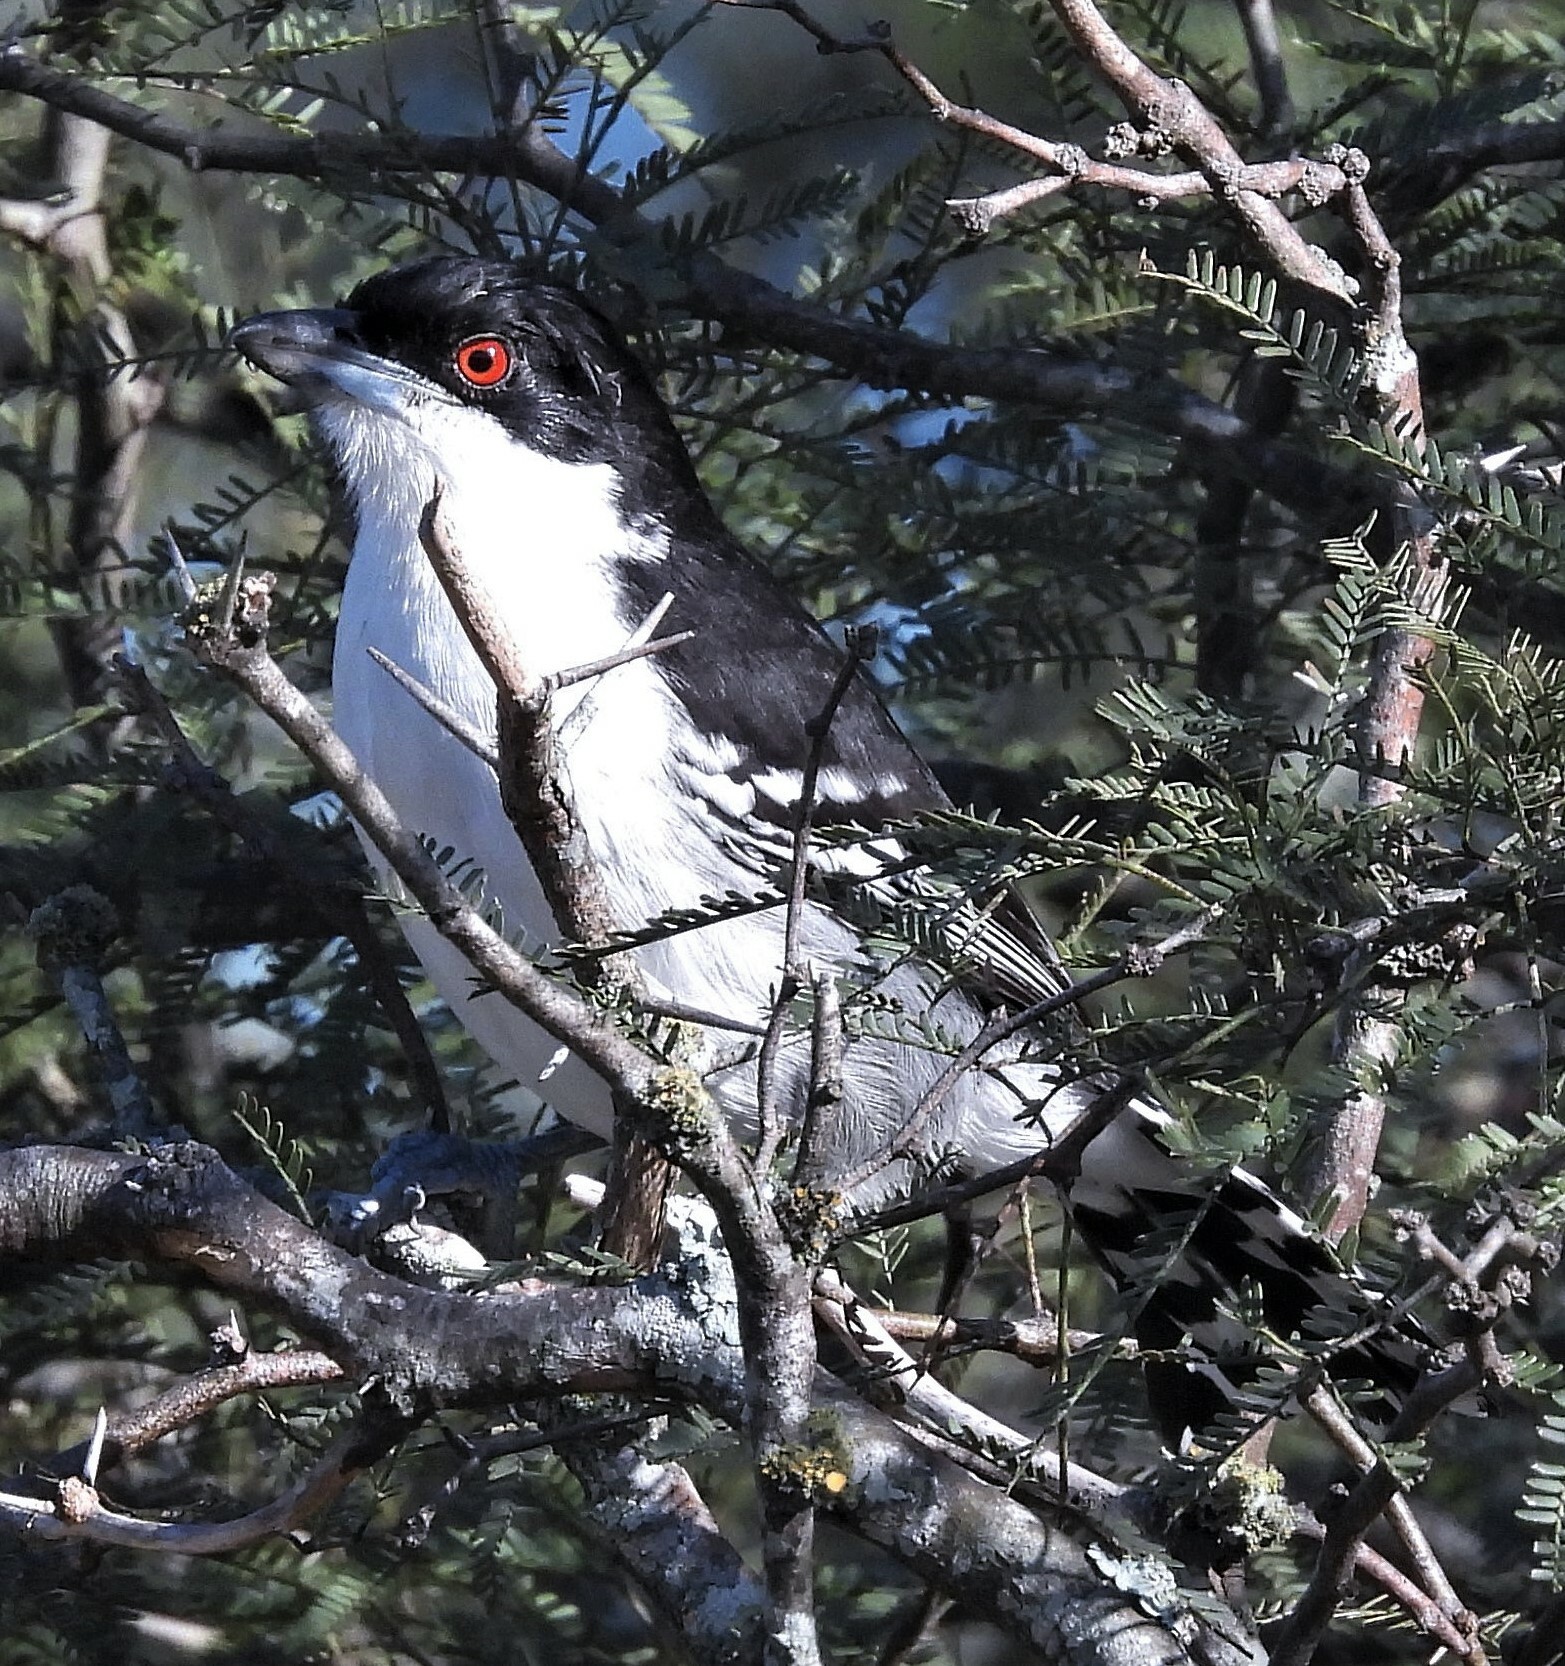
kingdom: Animalia
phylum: Chordata
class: Aves
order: Passeriformes
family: Thamnophilidae
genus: Taraba
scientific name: Taraba major
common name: Great antshrike
